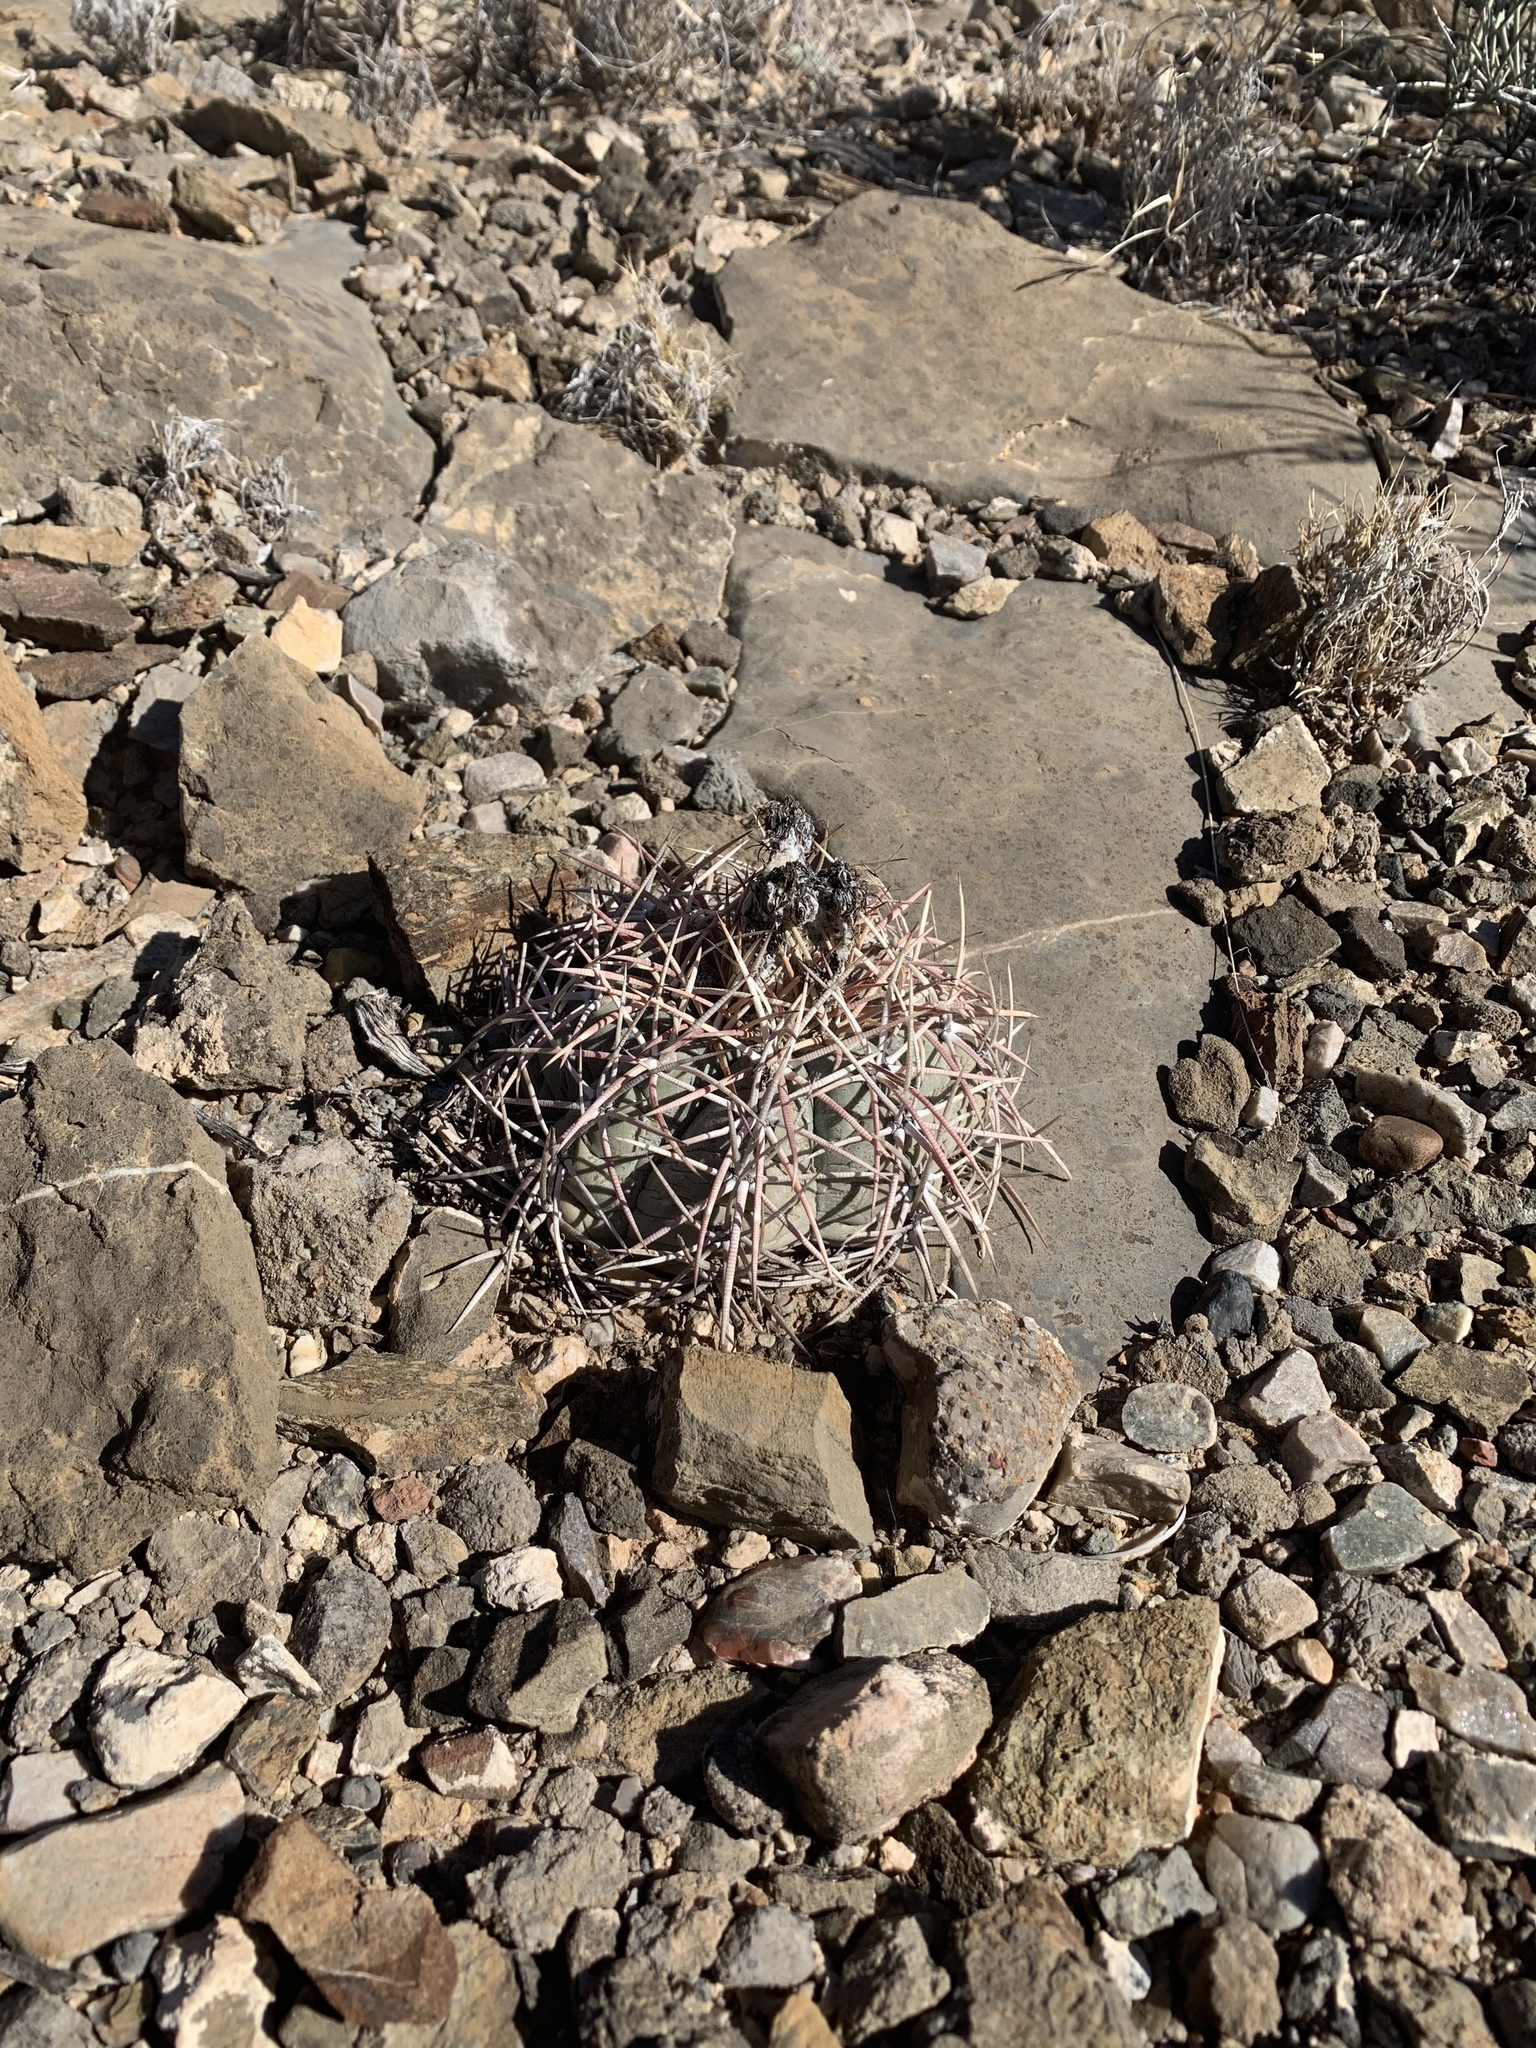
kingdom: Plantae
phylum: Tracheophyta
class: Magnoliopsida
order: Caryophyllales
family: Cactaceae
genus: Echinocactus
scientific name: Echinocactus horizonthalonius
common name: Devilshead
